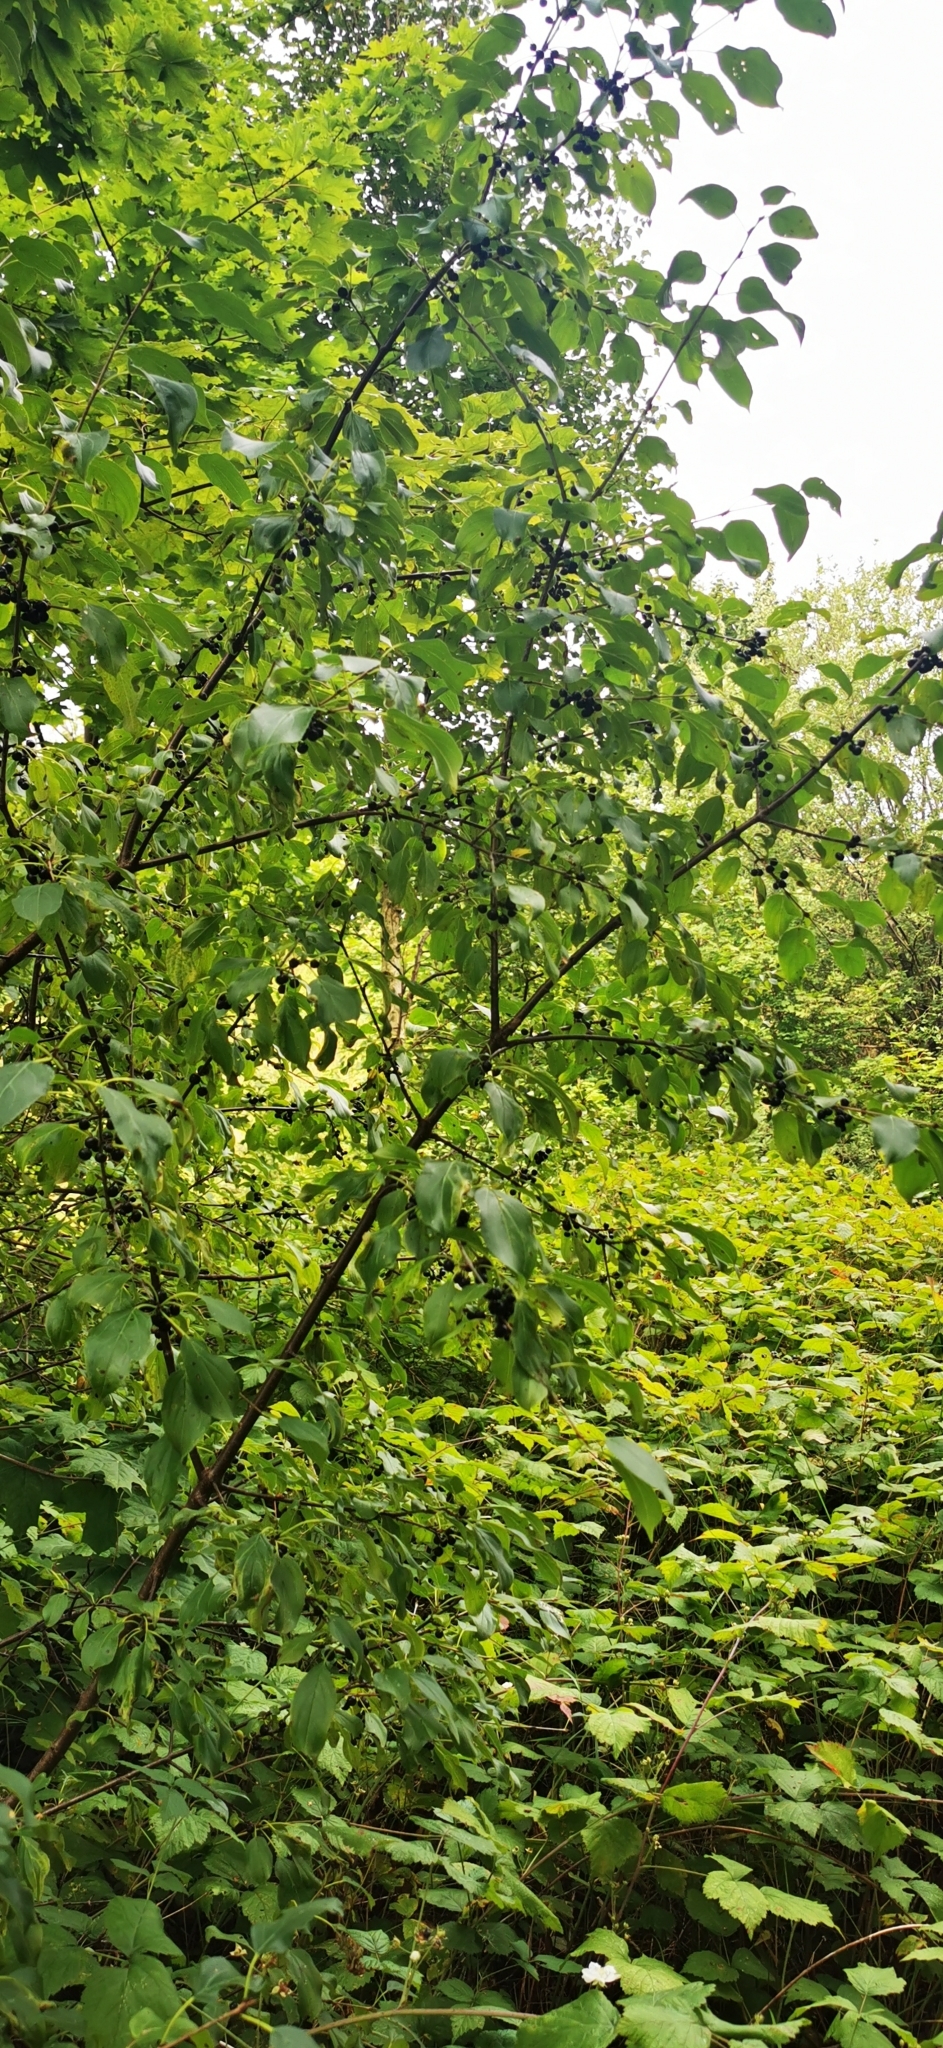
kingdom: Plantae
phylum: Tracheophyta
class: Magnoliopsida
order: Rosales
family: Rhamnaceae
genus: Rhamnus
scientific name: Rhamnus cathartica
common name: Common buckthorn
